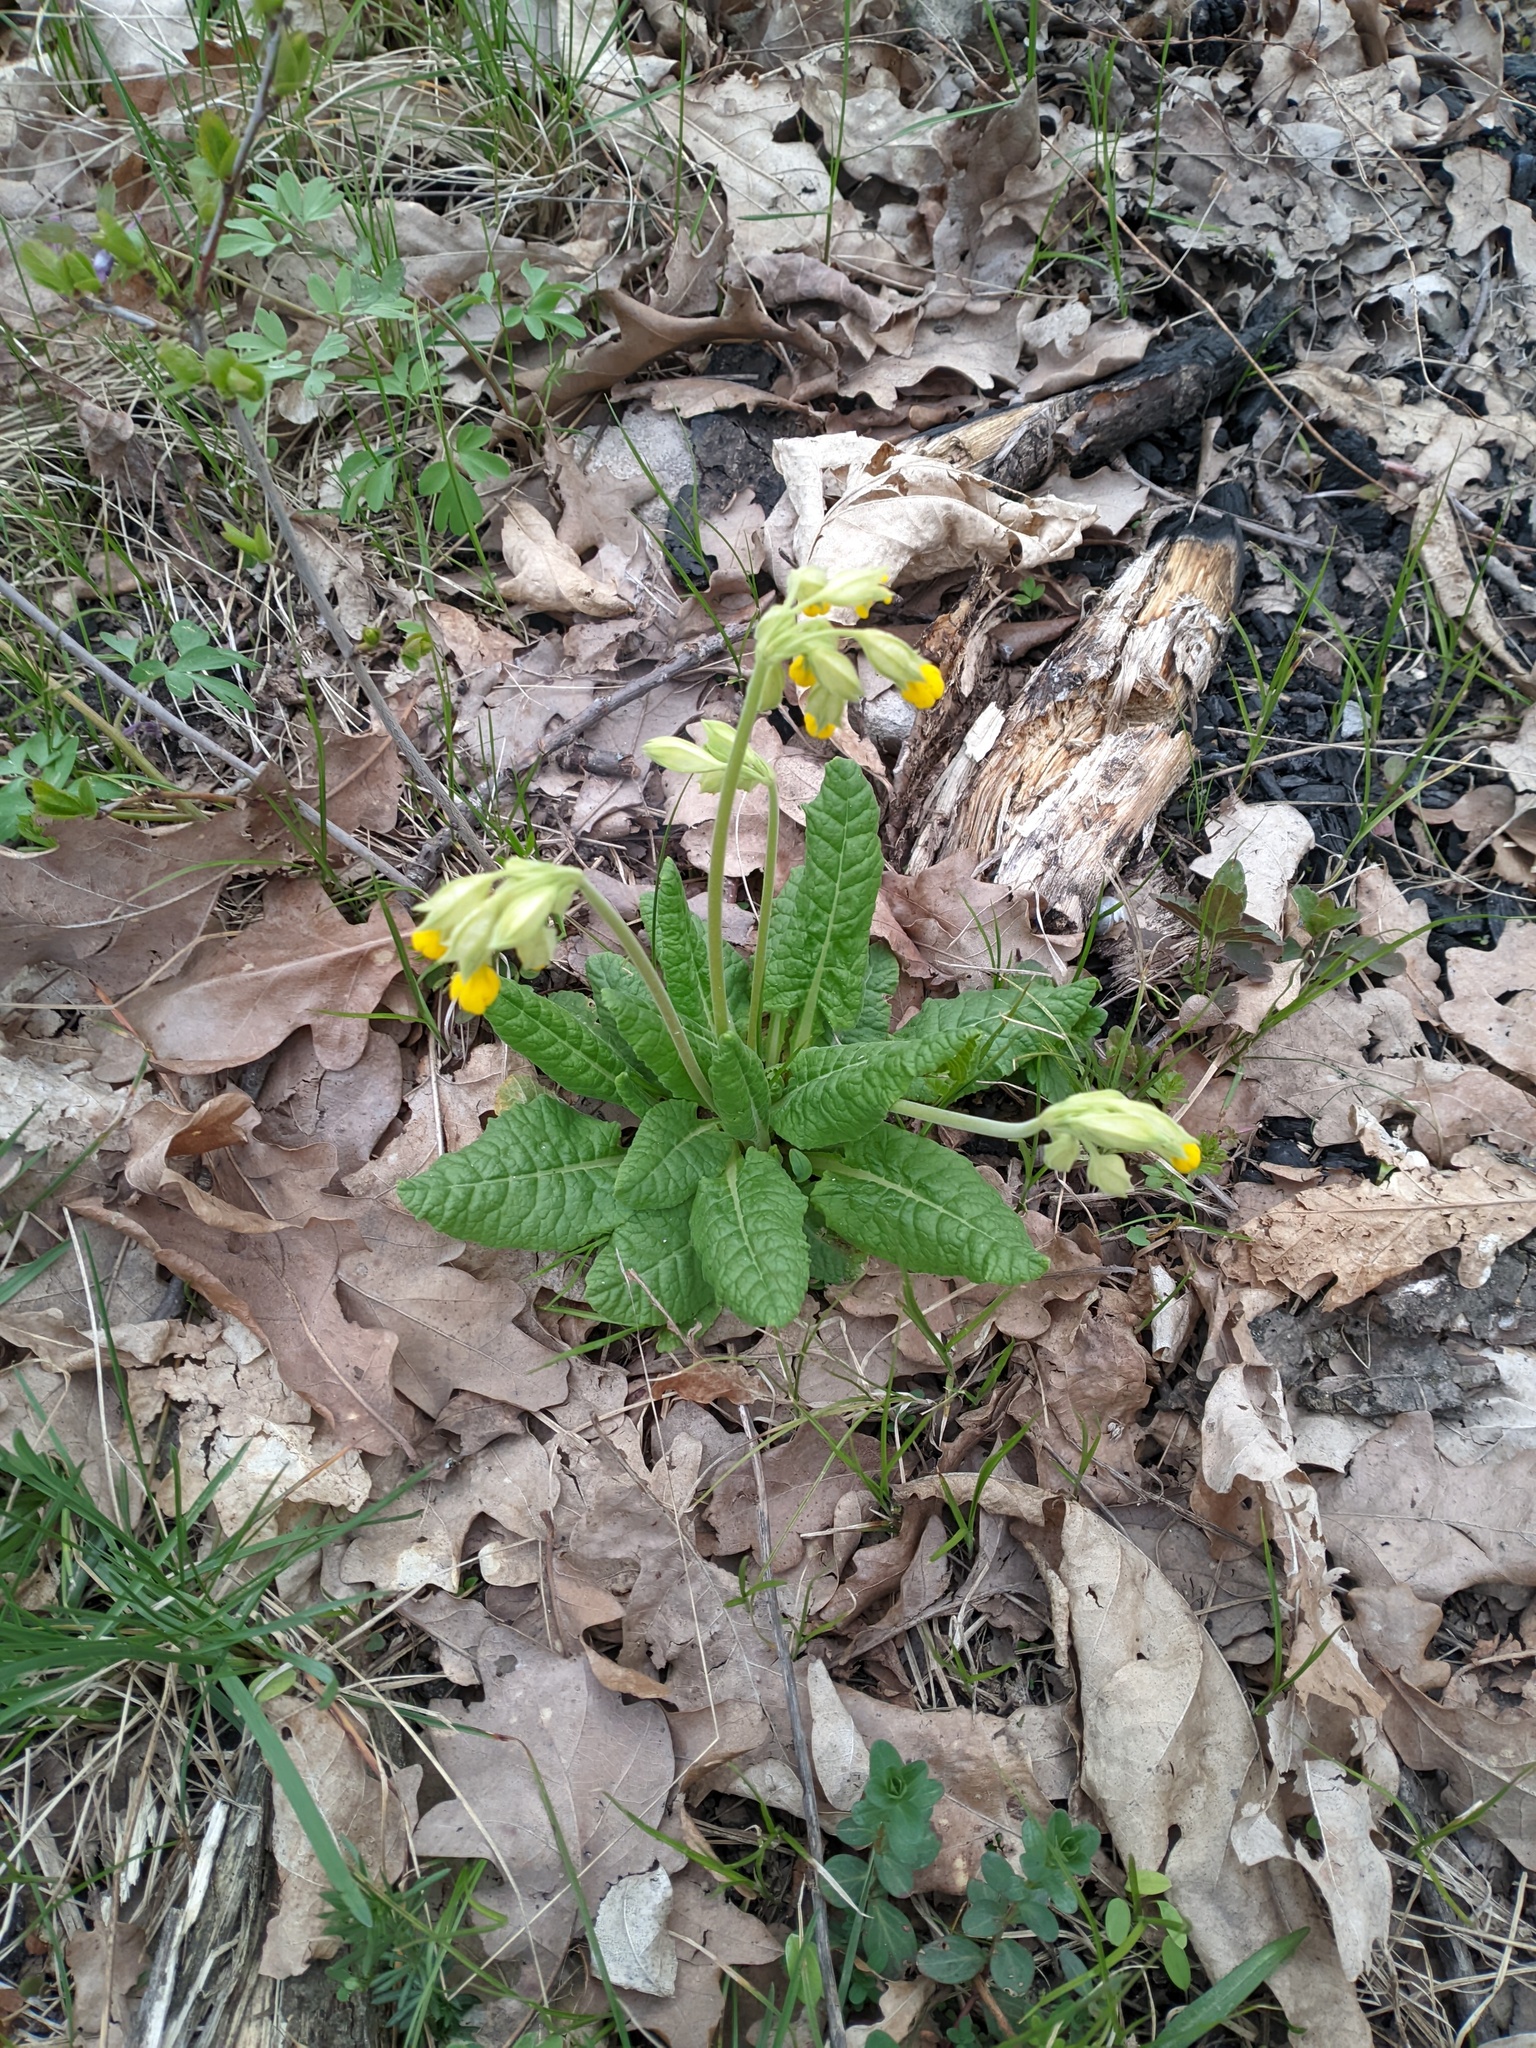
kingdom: Plantae
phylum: Tracheophyta
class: Magnoliopsida
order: Ericales
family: Primulaceae
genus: Primula
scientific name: Primula veris
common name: Cowslip
